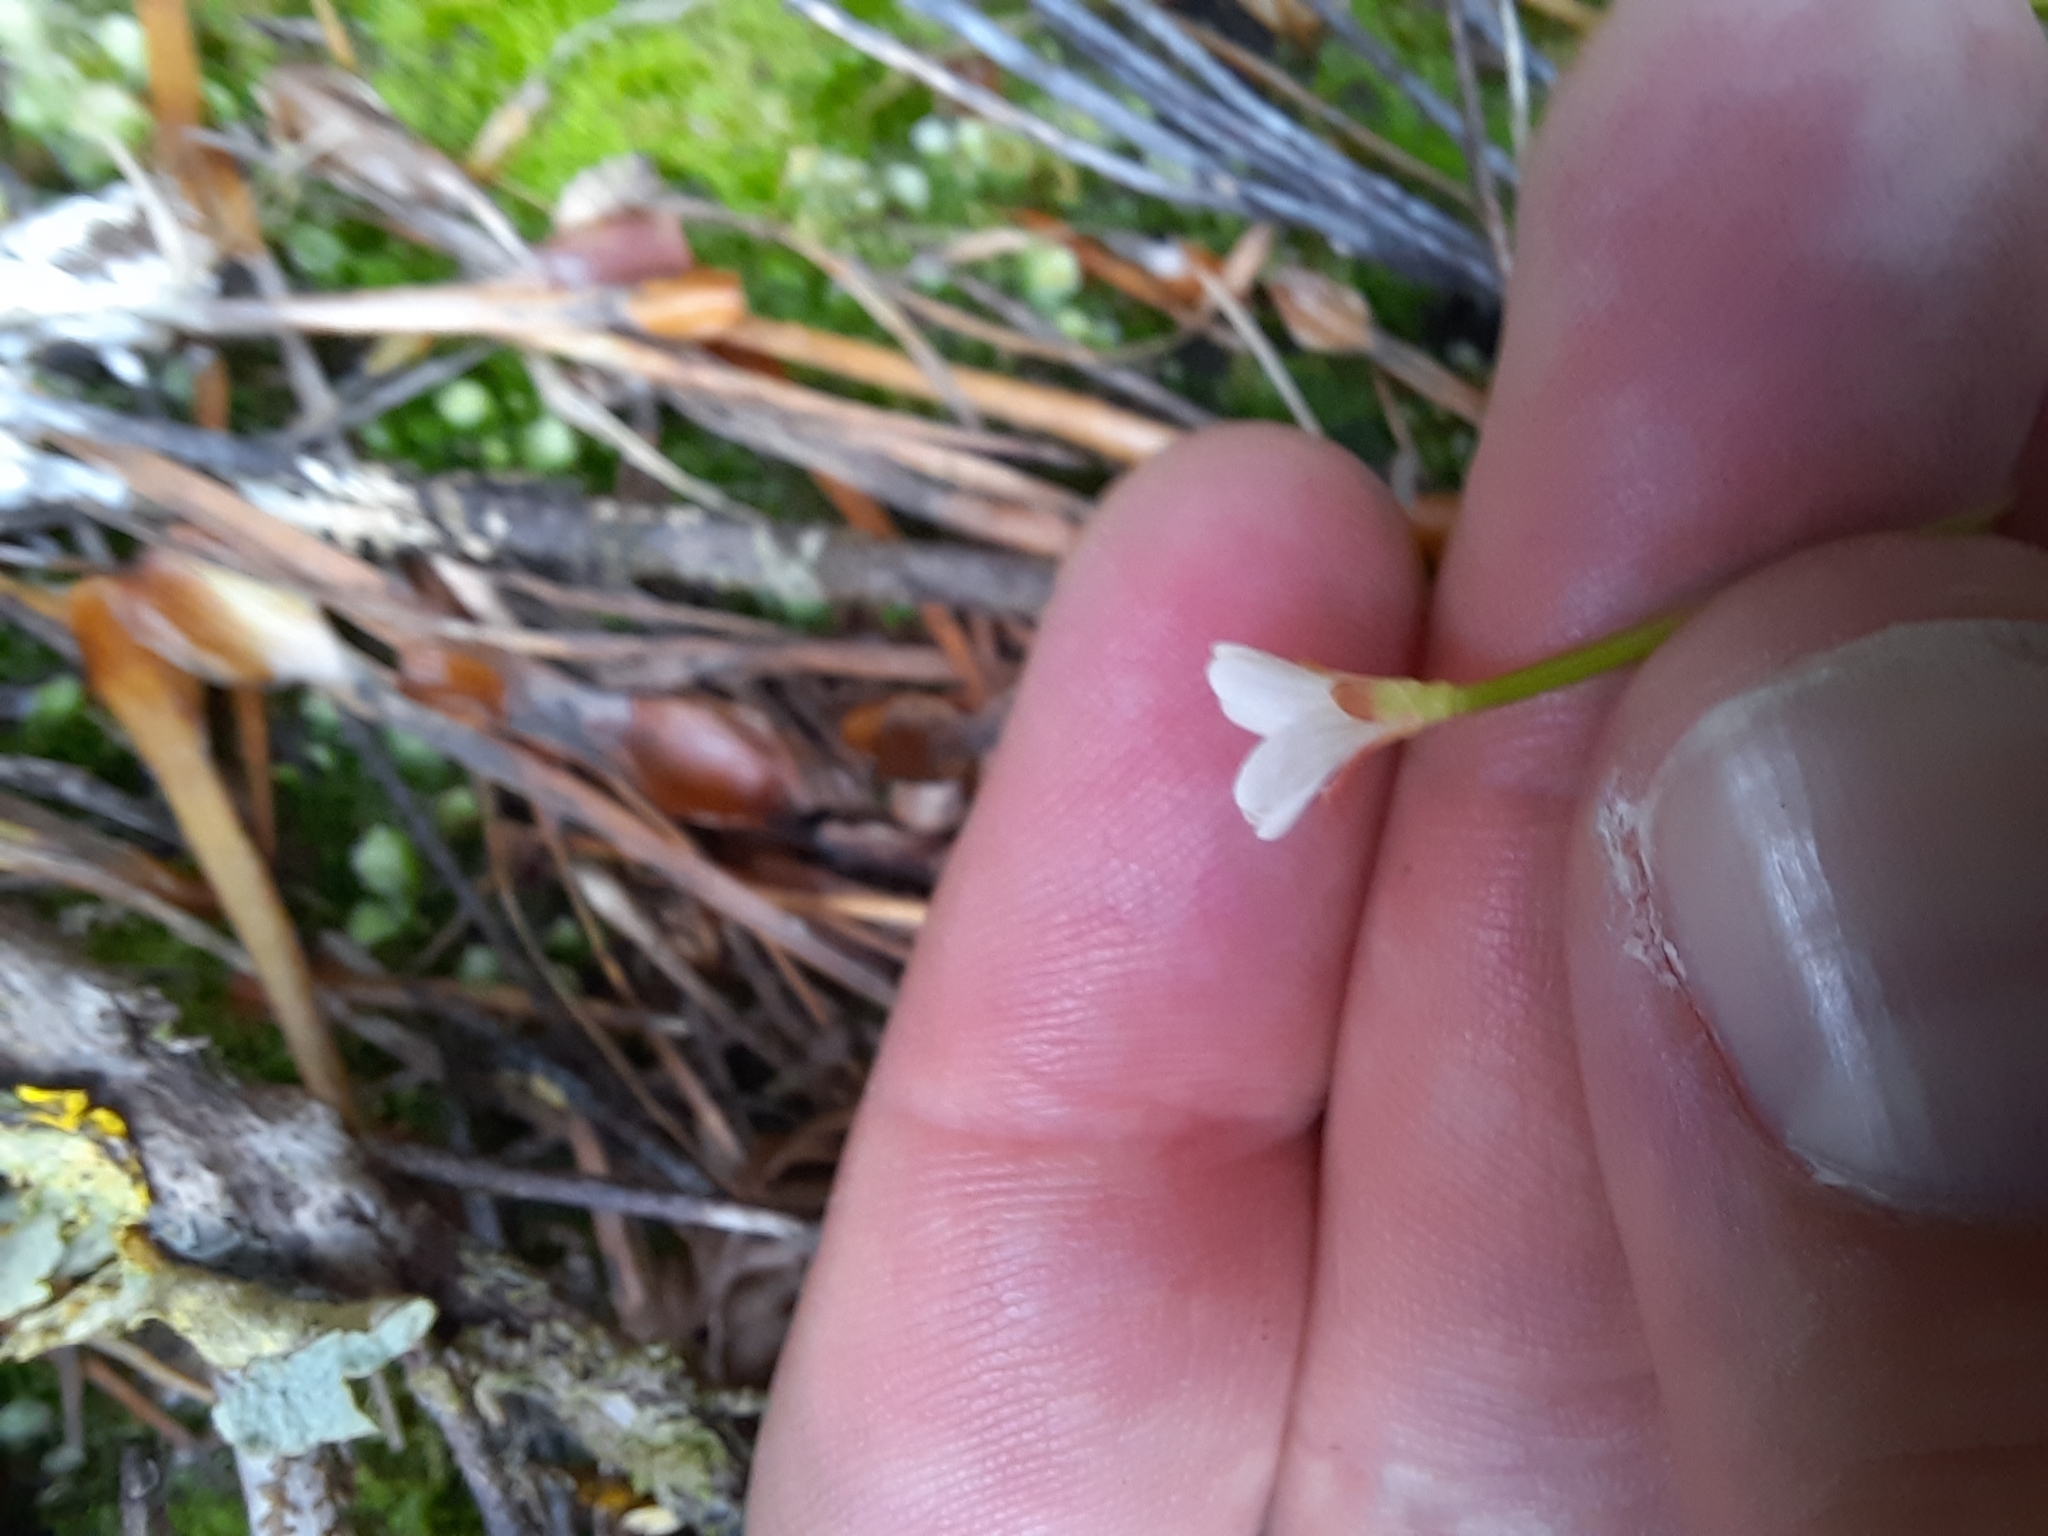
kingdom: Plantae
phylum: Tracheophyta
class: Magnoliopsida
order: Myrtales
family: Onagraceae
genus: Epilobium
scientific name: Epilobium pedunculare
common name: Rockery willowherb
